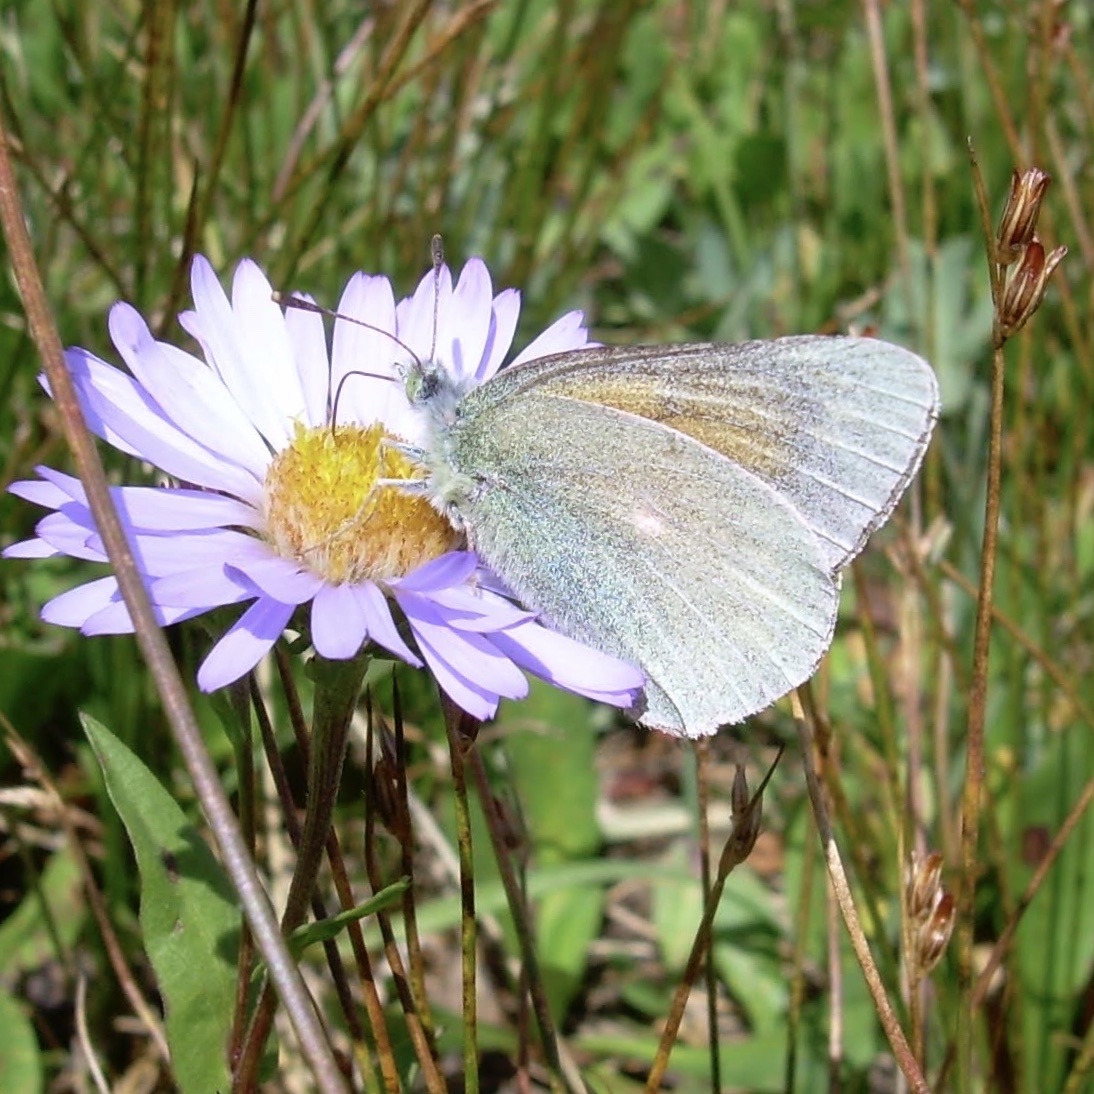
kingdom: Animalia
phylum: Arthropoda
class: Insecta
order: Lepidoptera
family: Pieridae
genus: Colias
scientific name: Colias meadii
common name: Mead's sulphur
